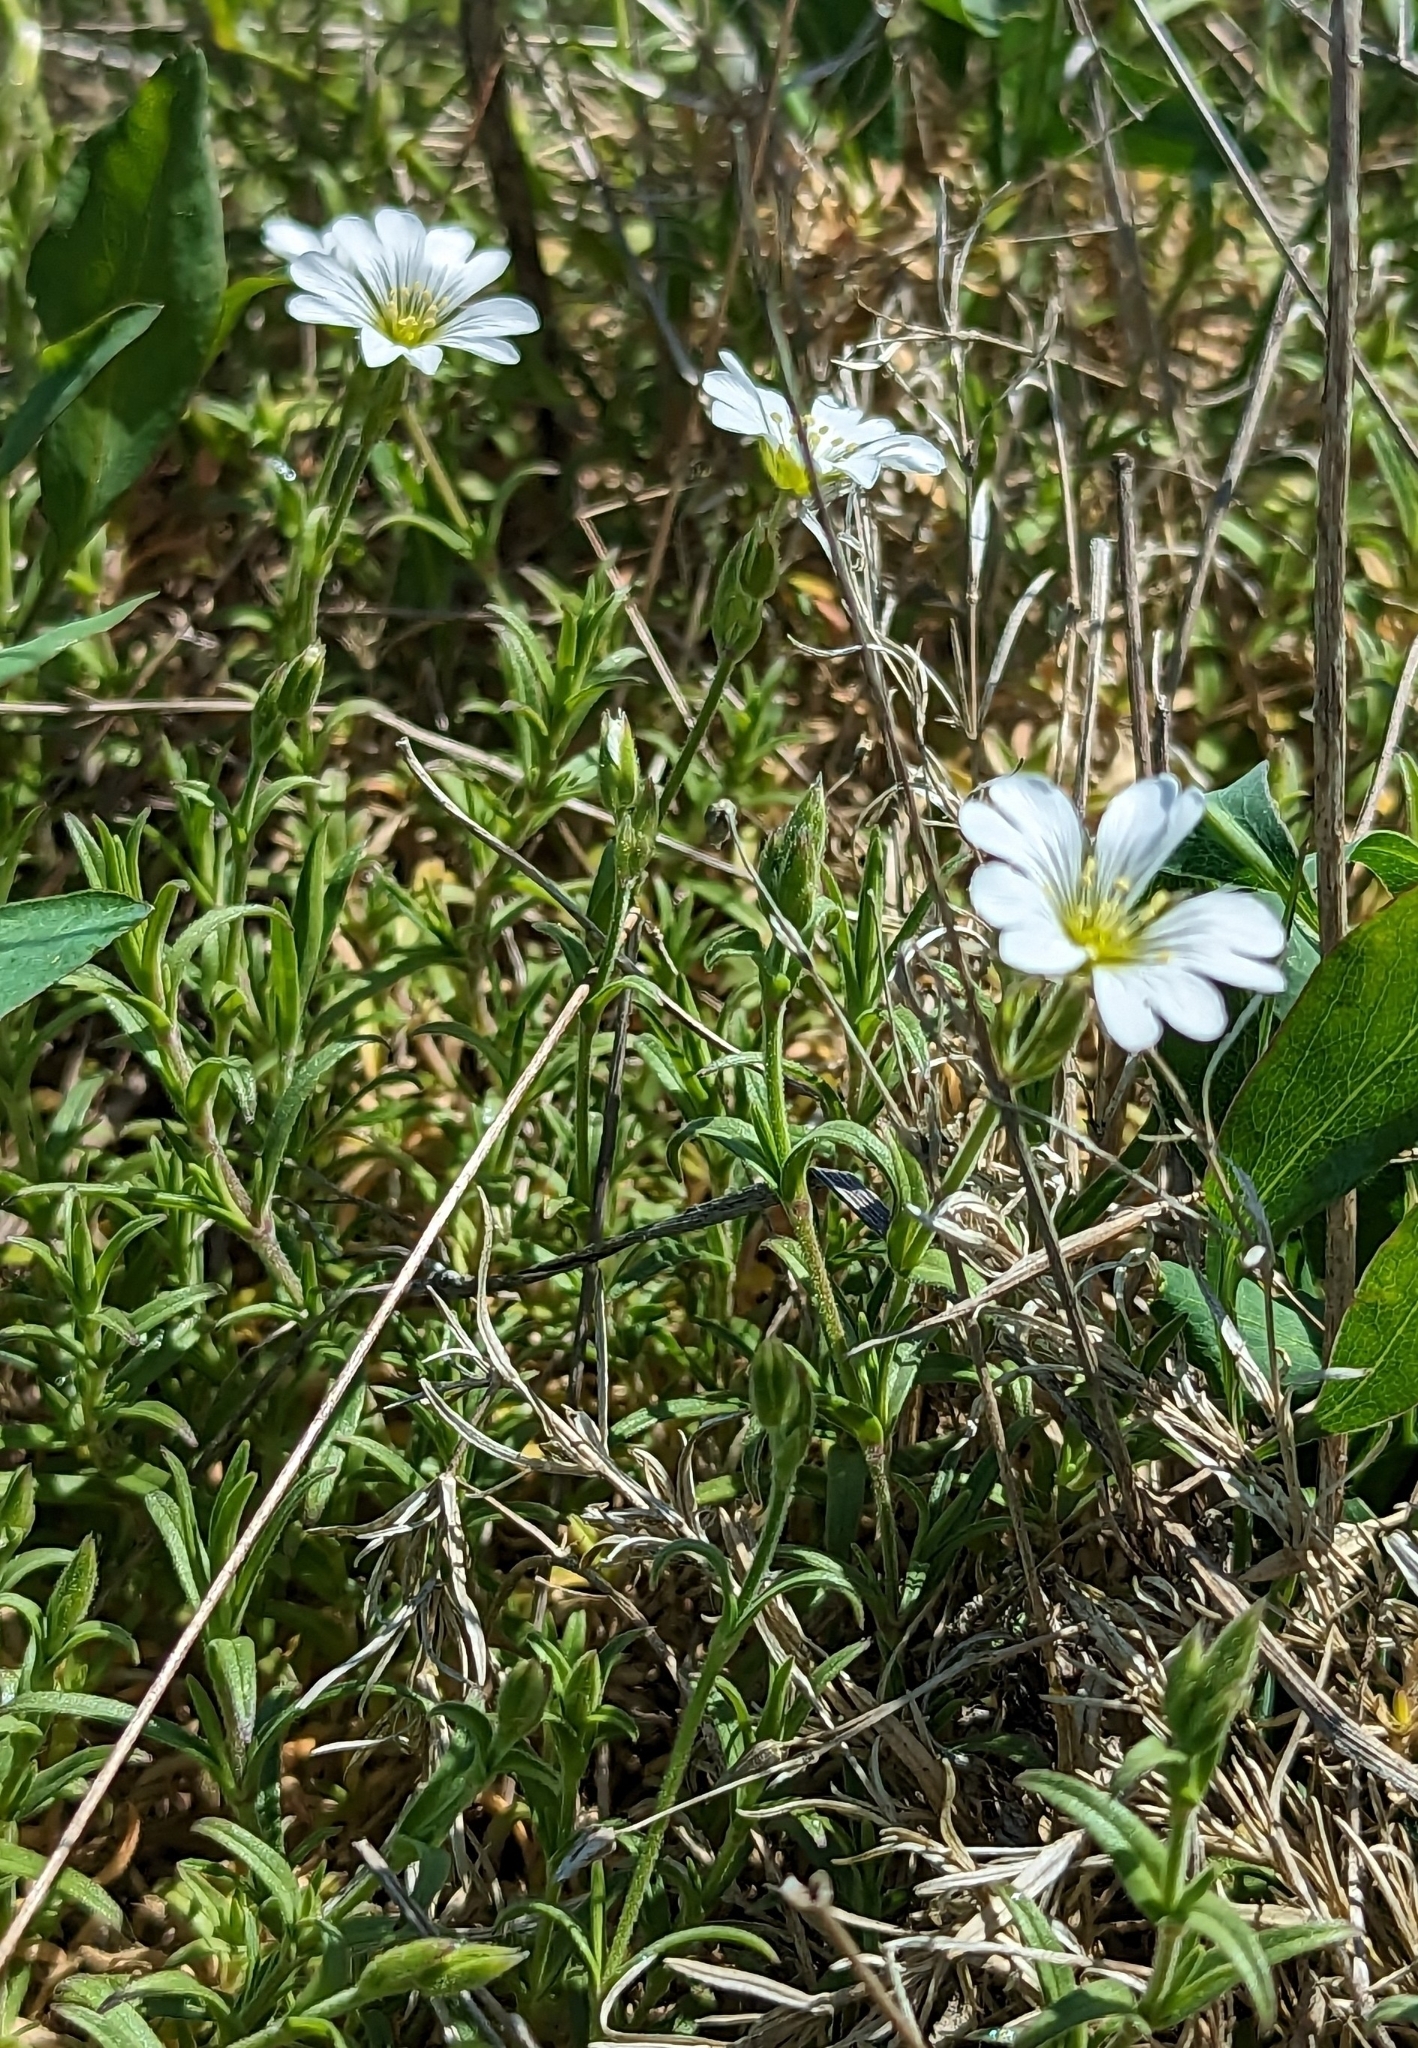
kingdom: Plantae
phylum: Tracheophyta
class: Magnoliopsida
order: Caryophyllales
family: Caryophyllaceae
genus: Cerastium
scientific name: Cerastium arvense
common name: Field mouse-ear
